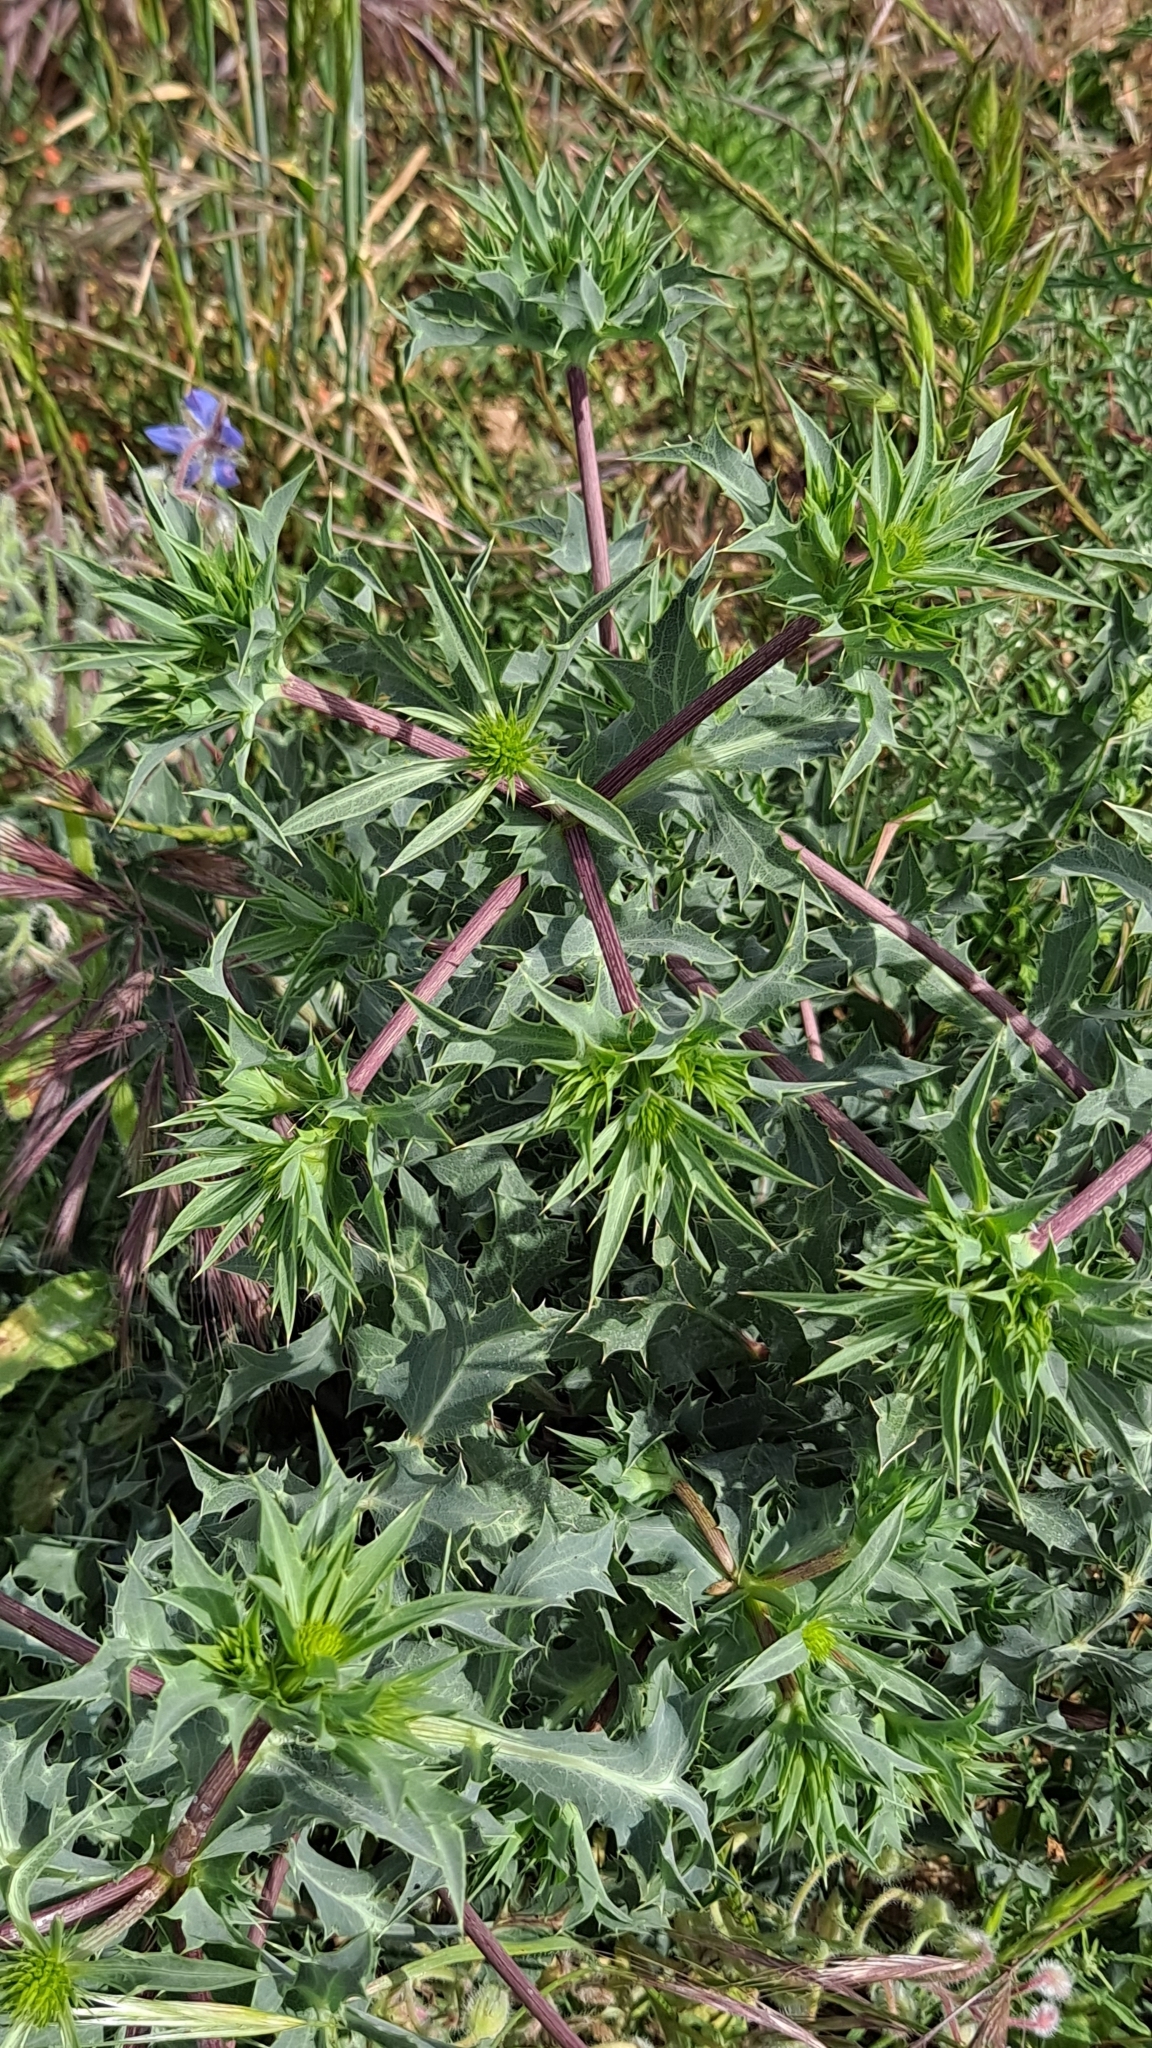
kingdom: Plantae
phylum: Tracheophyta
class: Magnoliopsida
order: Apiales
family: Apiaceae
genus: Eryngium
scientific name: Eryngium campestre
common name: Field eryngo
